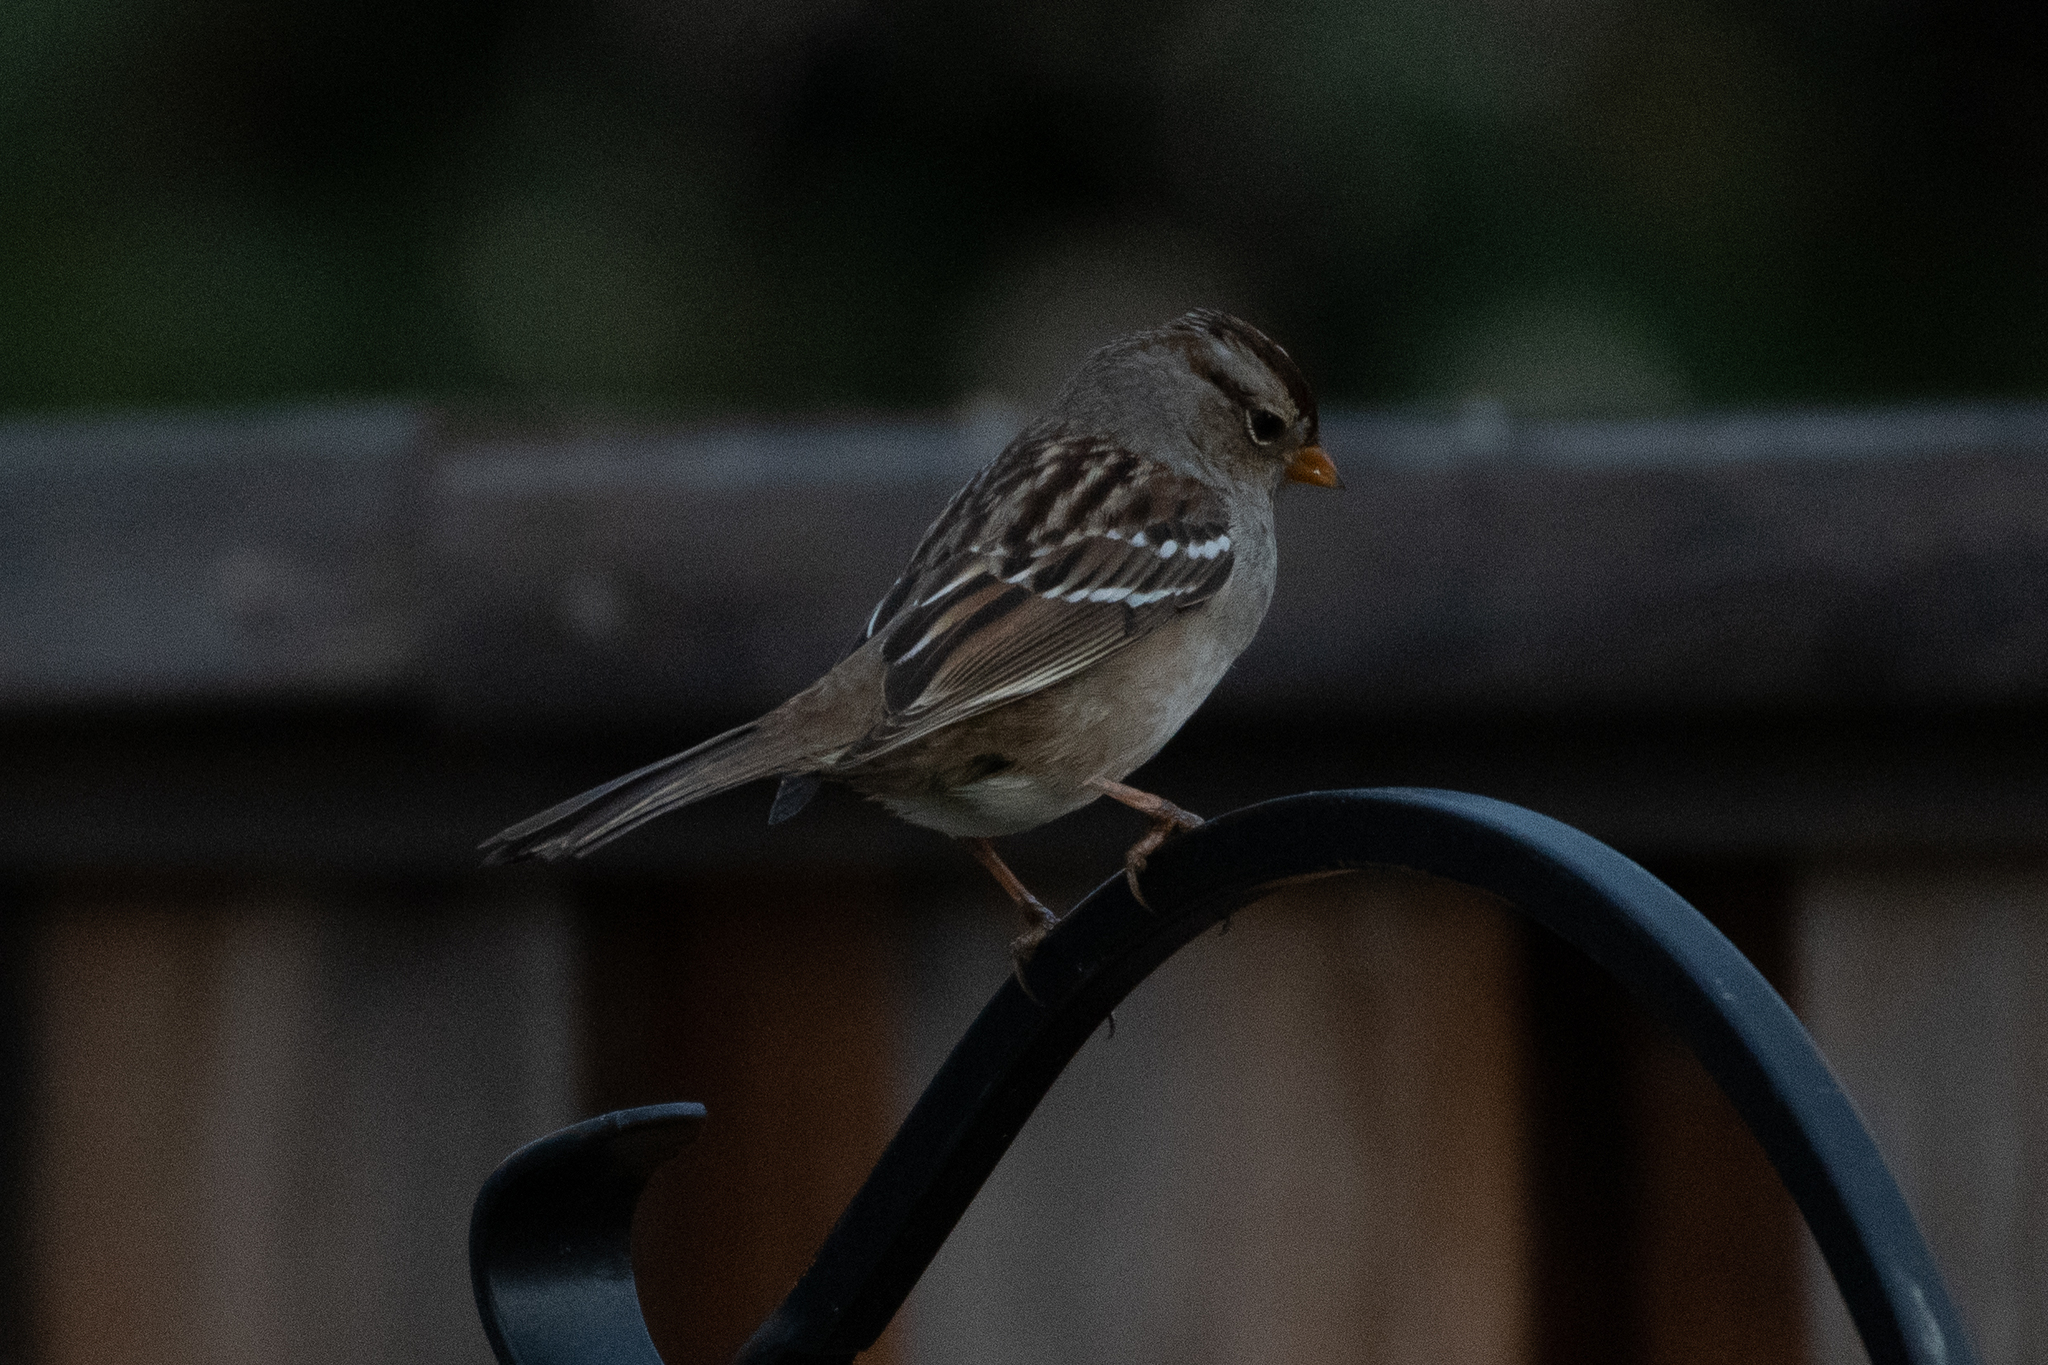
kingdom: Animalia
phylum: Chordata
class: Aves
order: Passeriformes
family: Passerellidae
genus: Zonotrichia
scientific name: Zonotrichia leucophrys
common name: White-crowned sparrow
